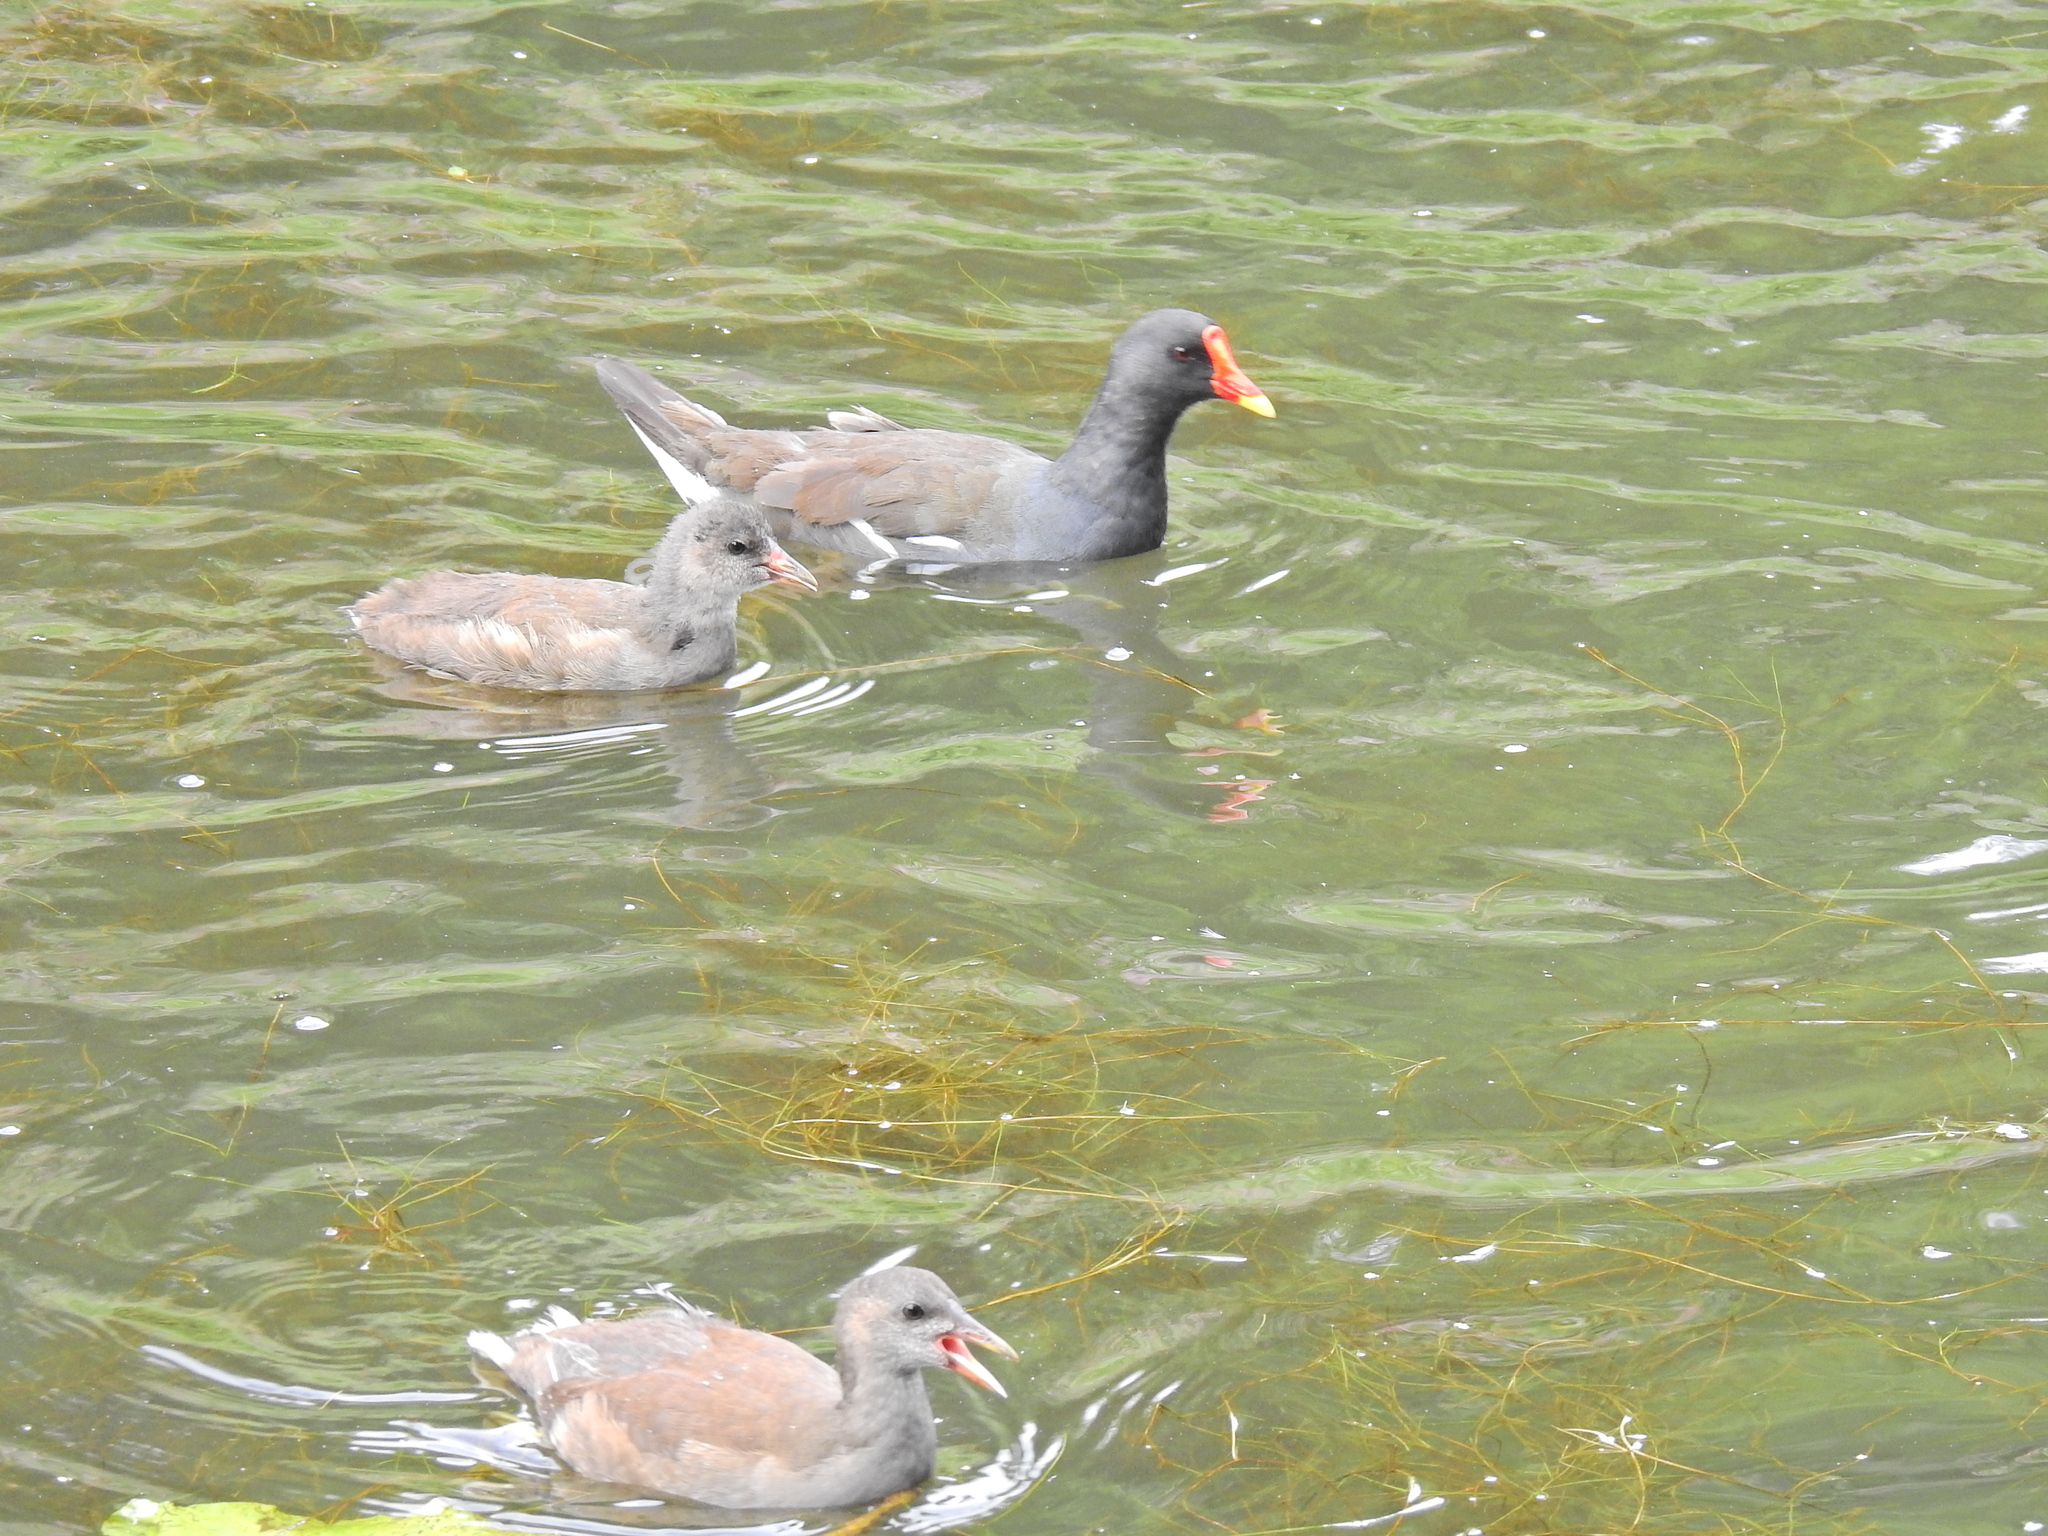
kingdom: Animalia
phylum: Chordata
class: Aves
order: Gruiformes
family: Rallidae
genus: Gallinula
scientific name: Gallinula chloropus
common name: Common moorhen
